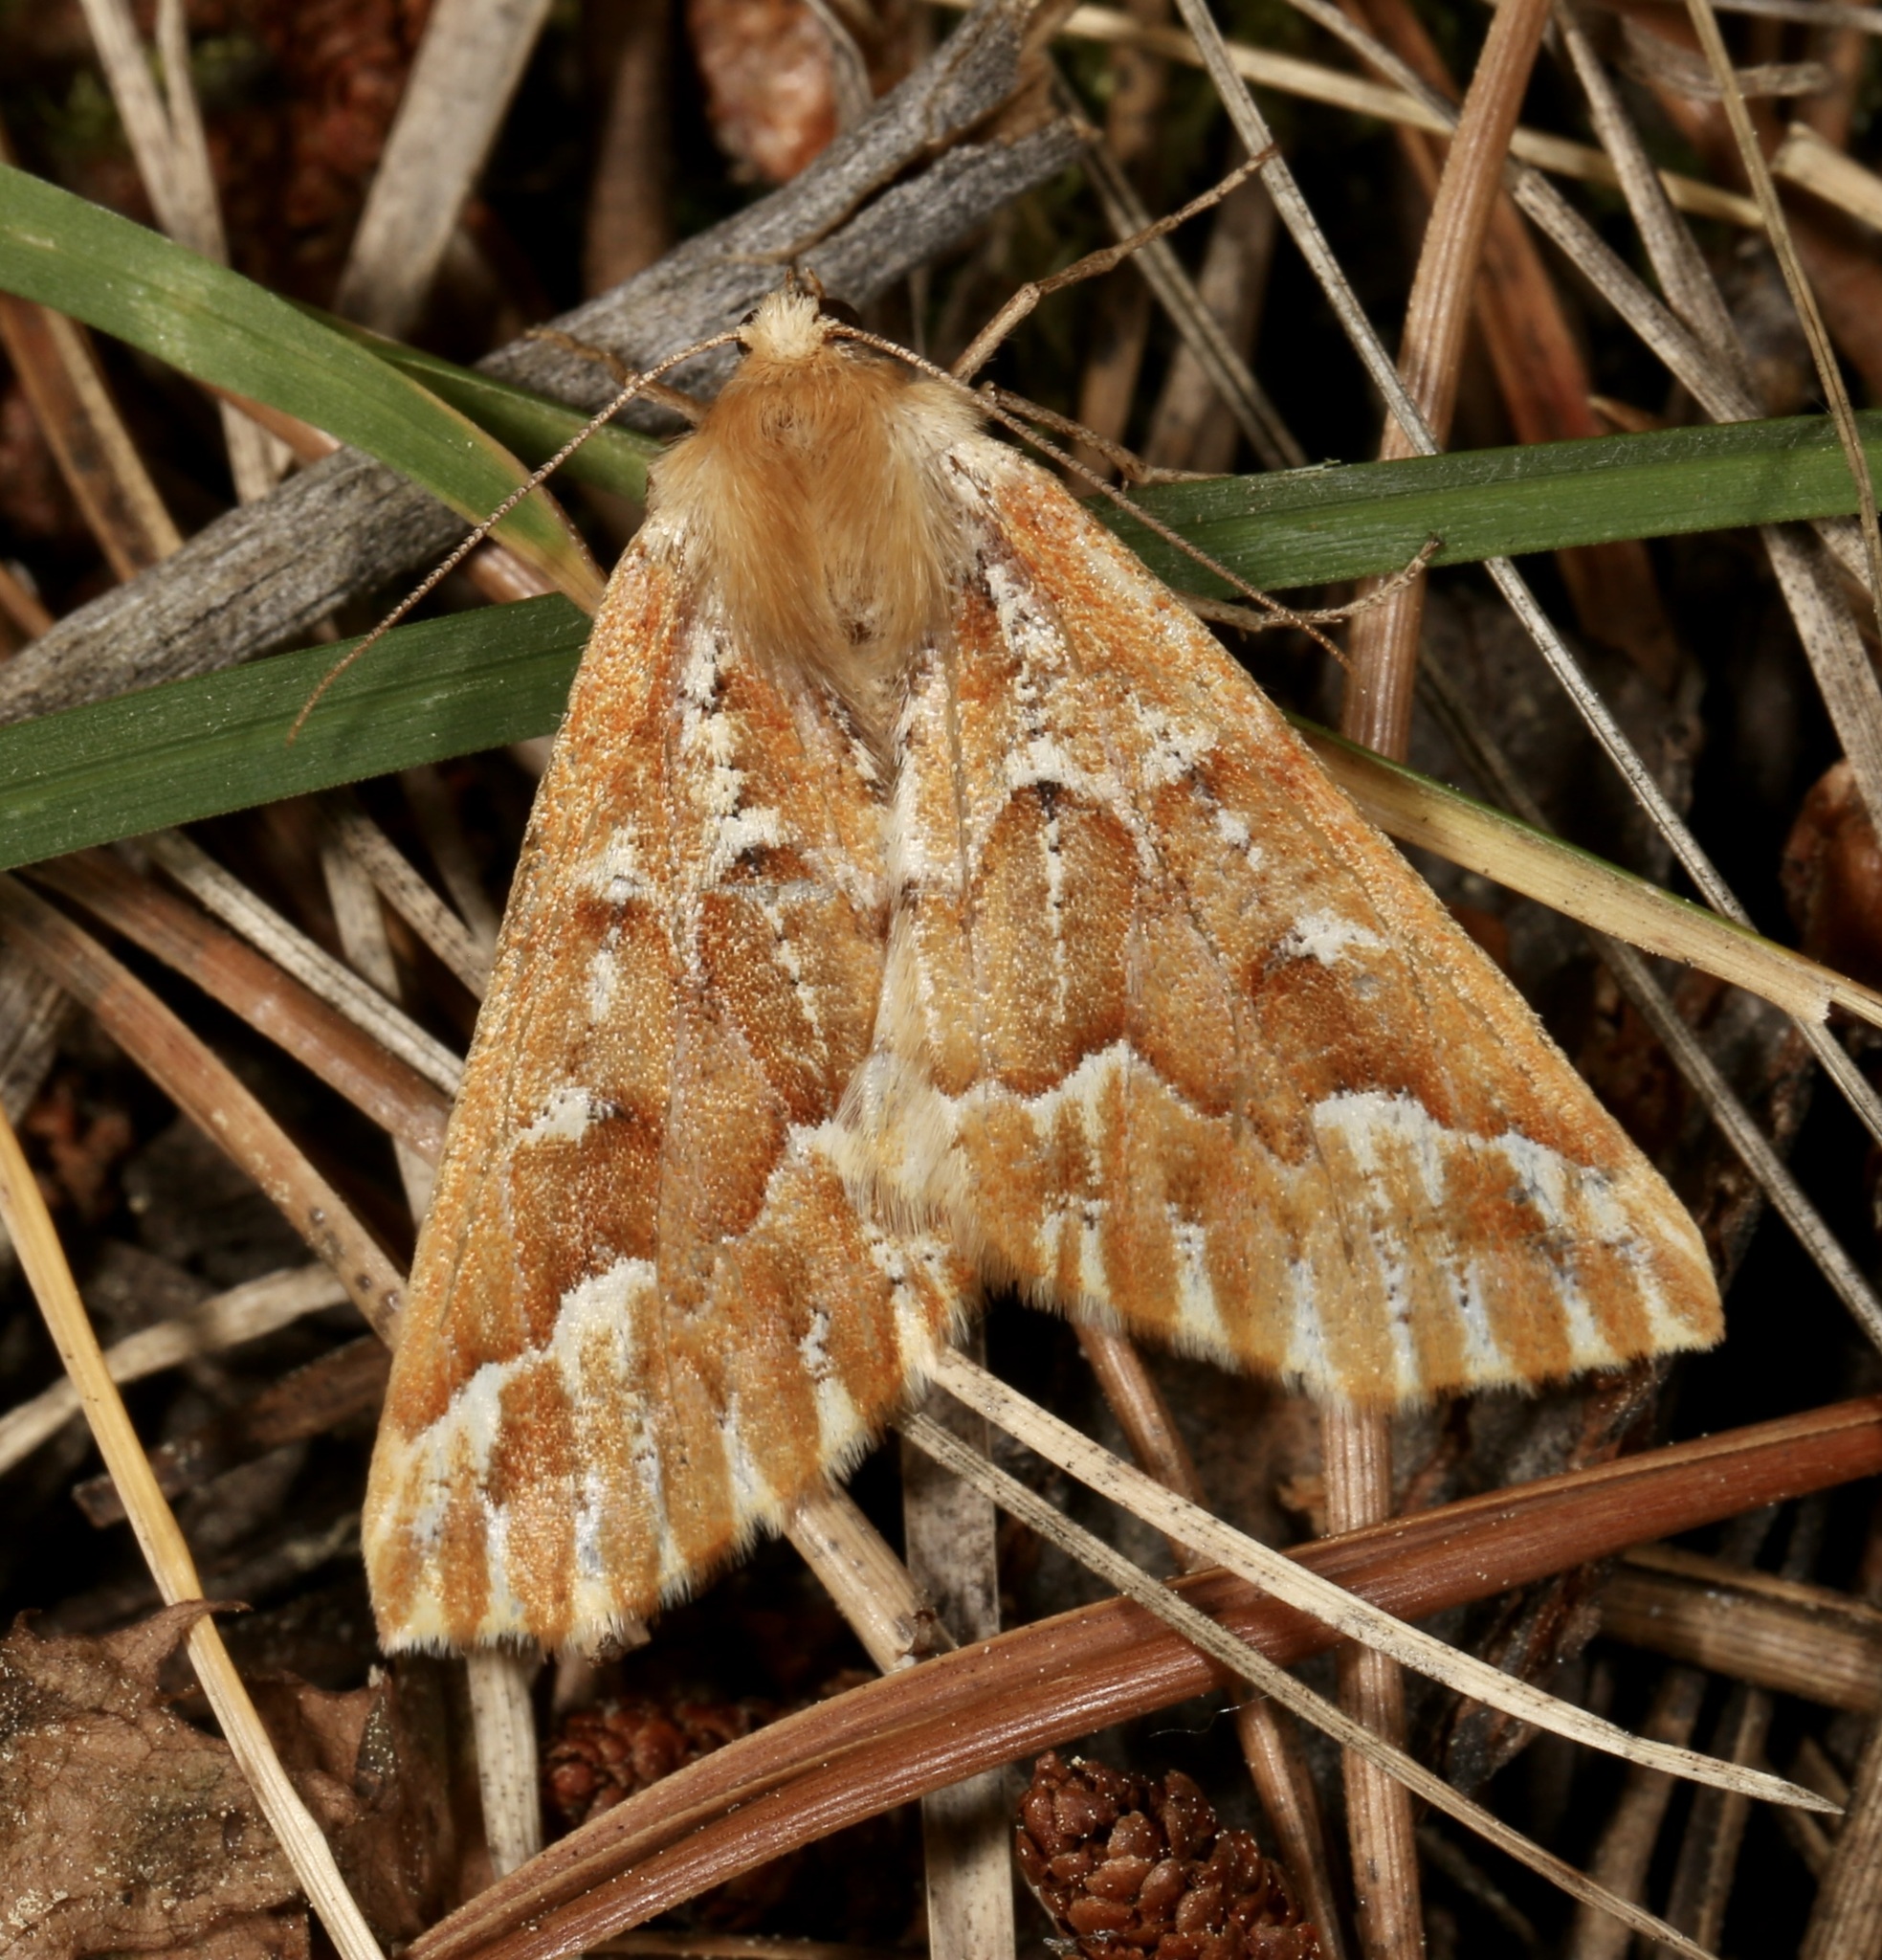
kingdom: Animalia
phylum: Arthropoda
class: Insecta
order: Lepidoptera
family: Geometridae
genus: Caripeta
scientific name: Caripeta aequaliaria
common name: Red girdle moth
